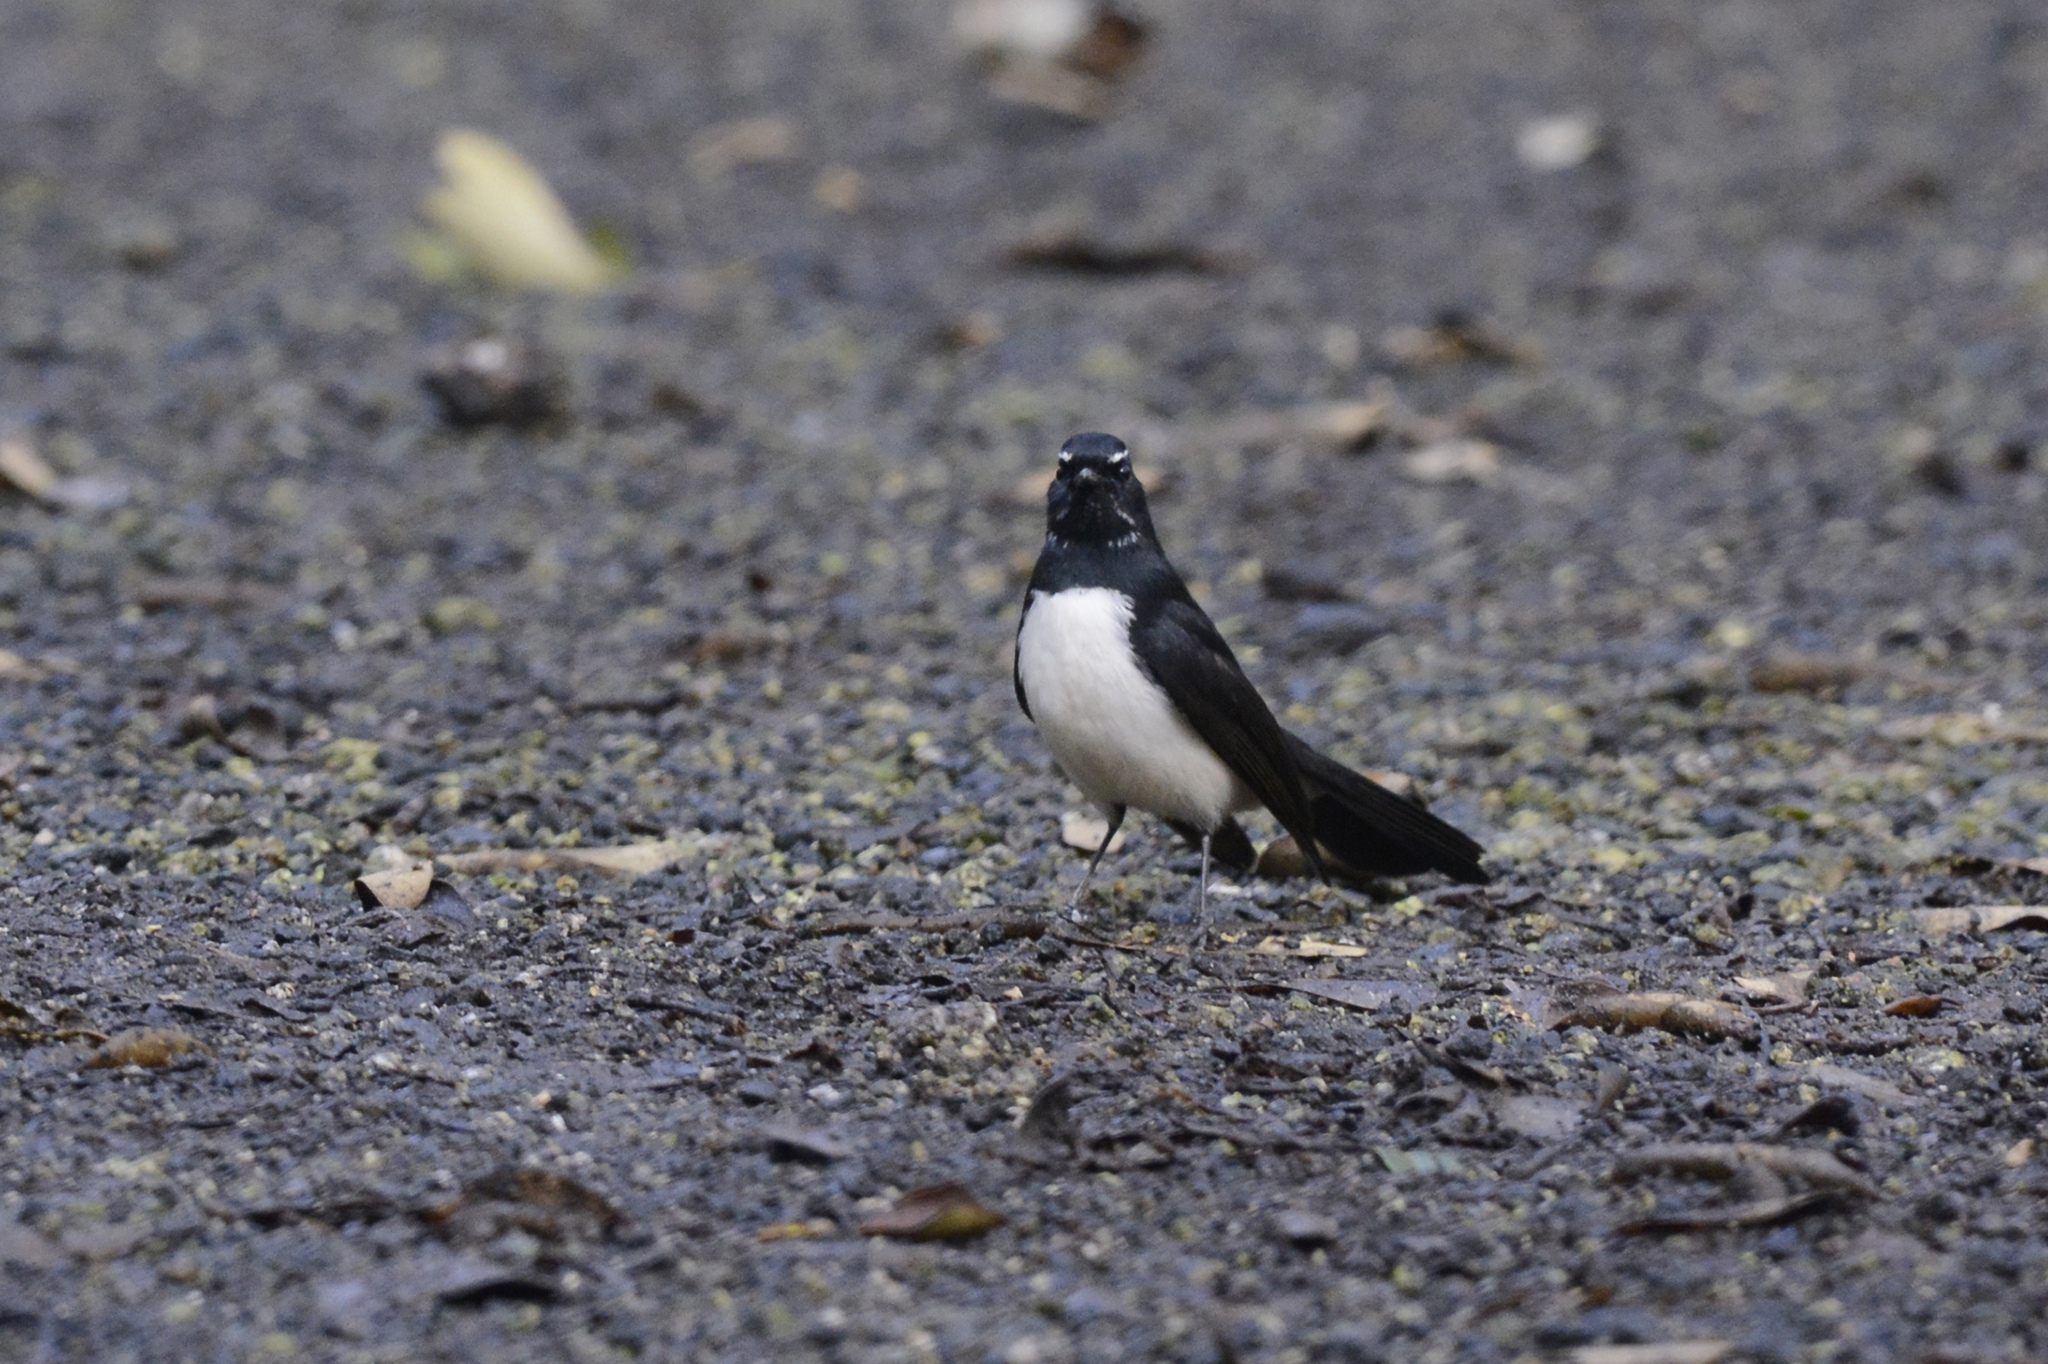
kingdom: Animalia
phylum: Chordata
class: Aves
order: Passeriformes
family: Rhipiduridae
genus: Rhipidura
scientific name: Rhipidura leucophrys
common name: Willie wagtail
